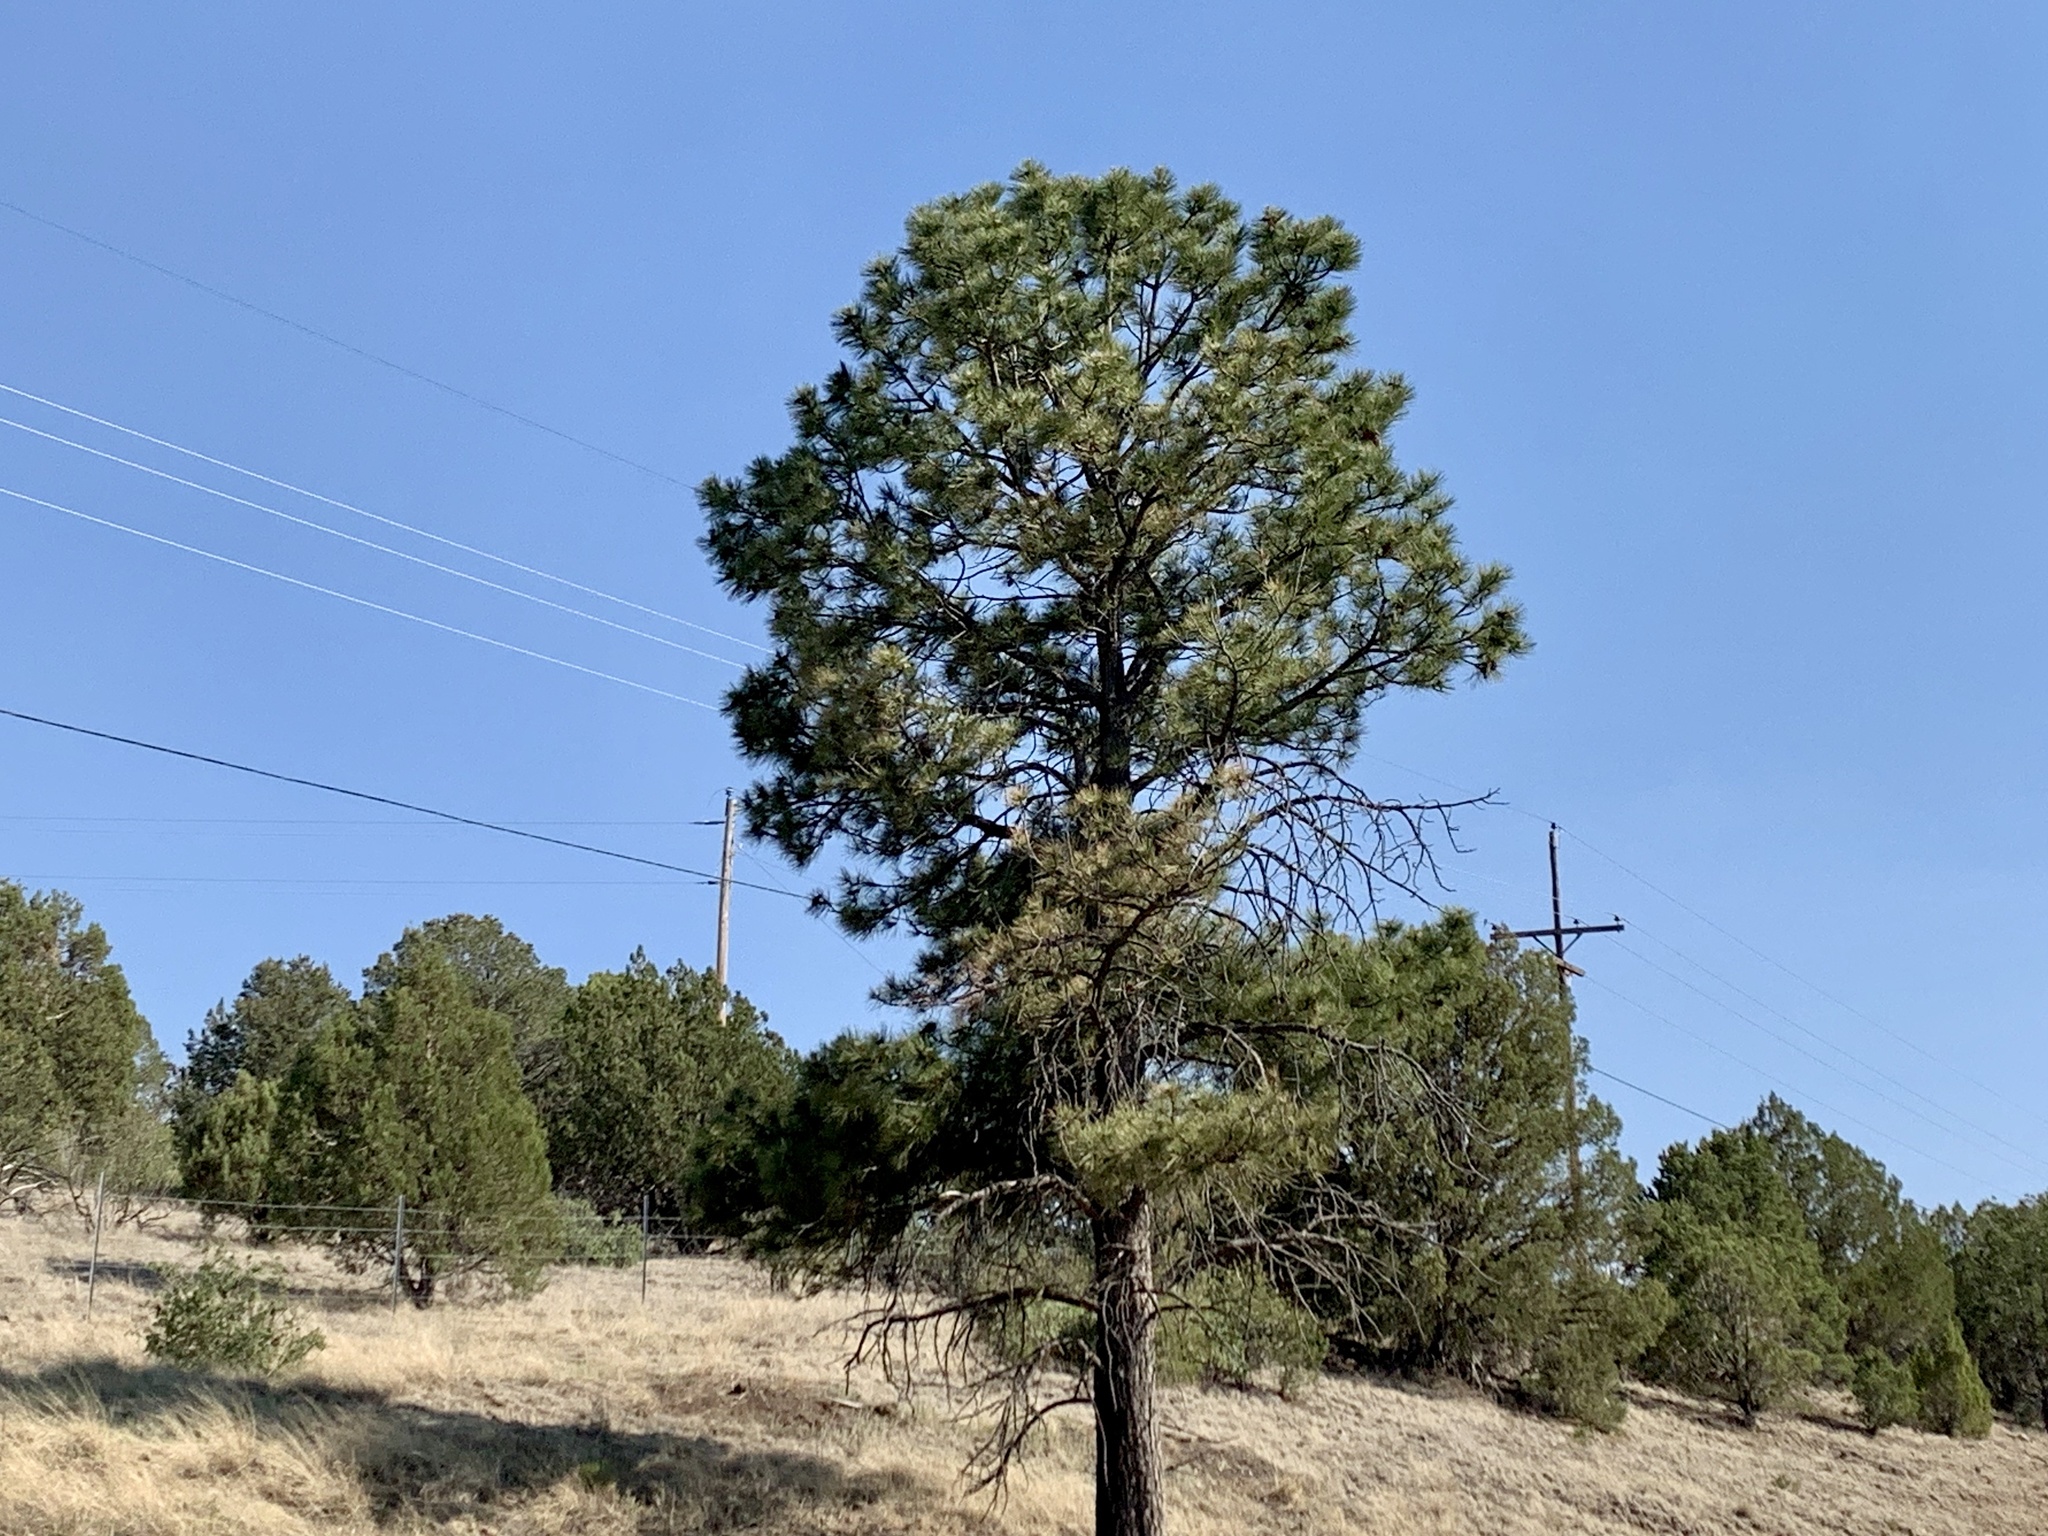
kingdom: Plantae
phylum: Tracheophyta
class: Pinopsida
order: Pinales
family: Pinaceae
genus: Pinus
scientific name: Pinus ponderosa
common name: Western yellow-pine
